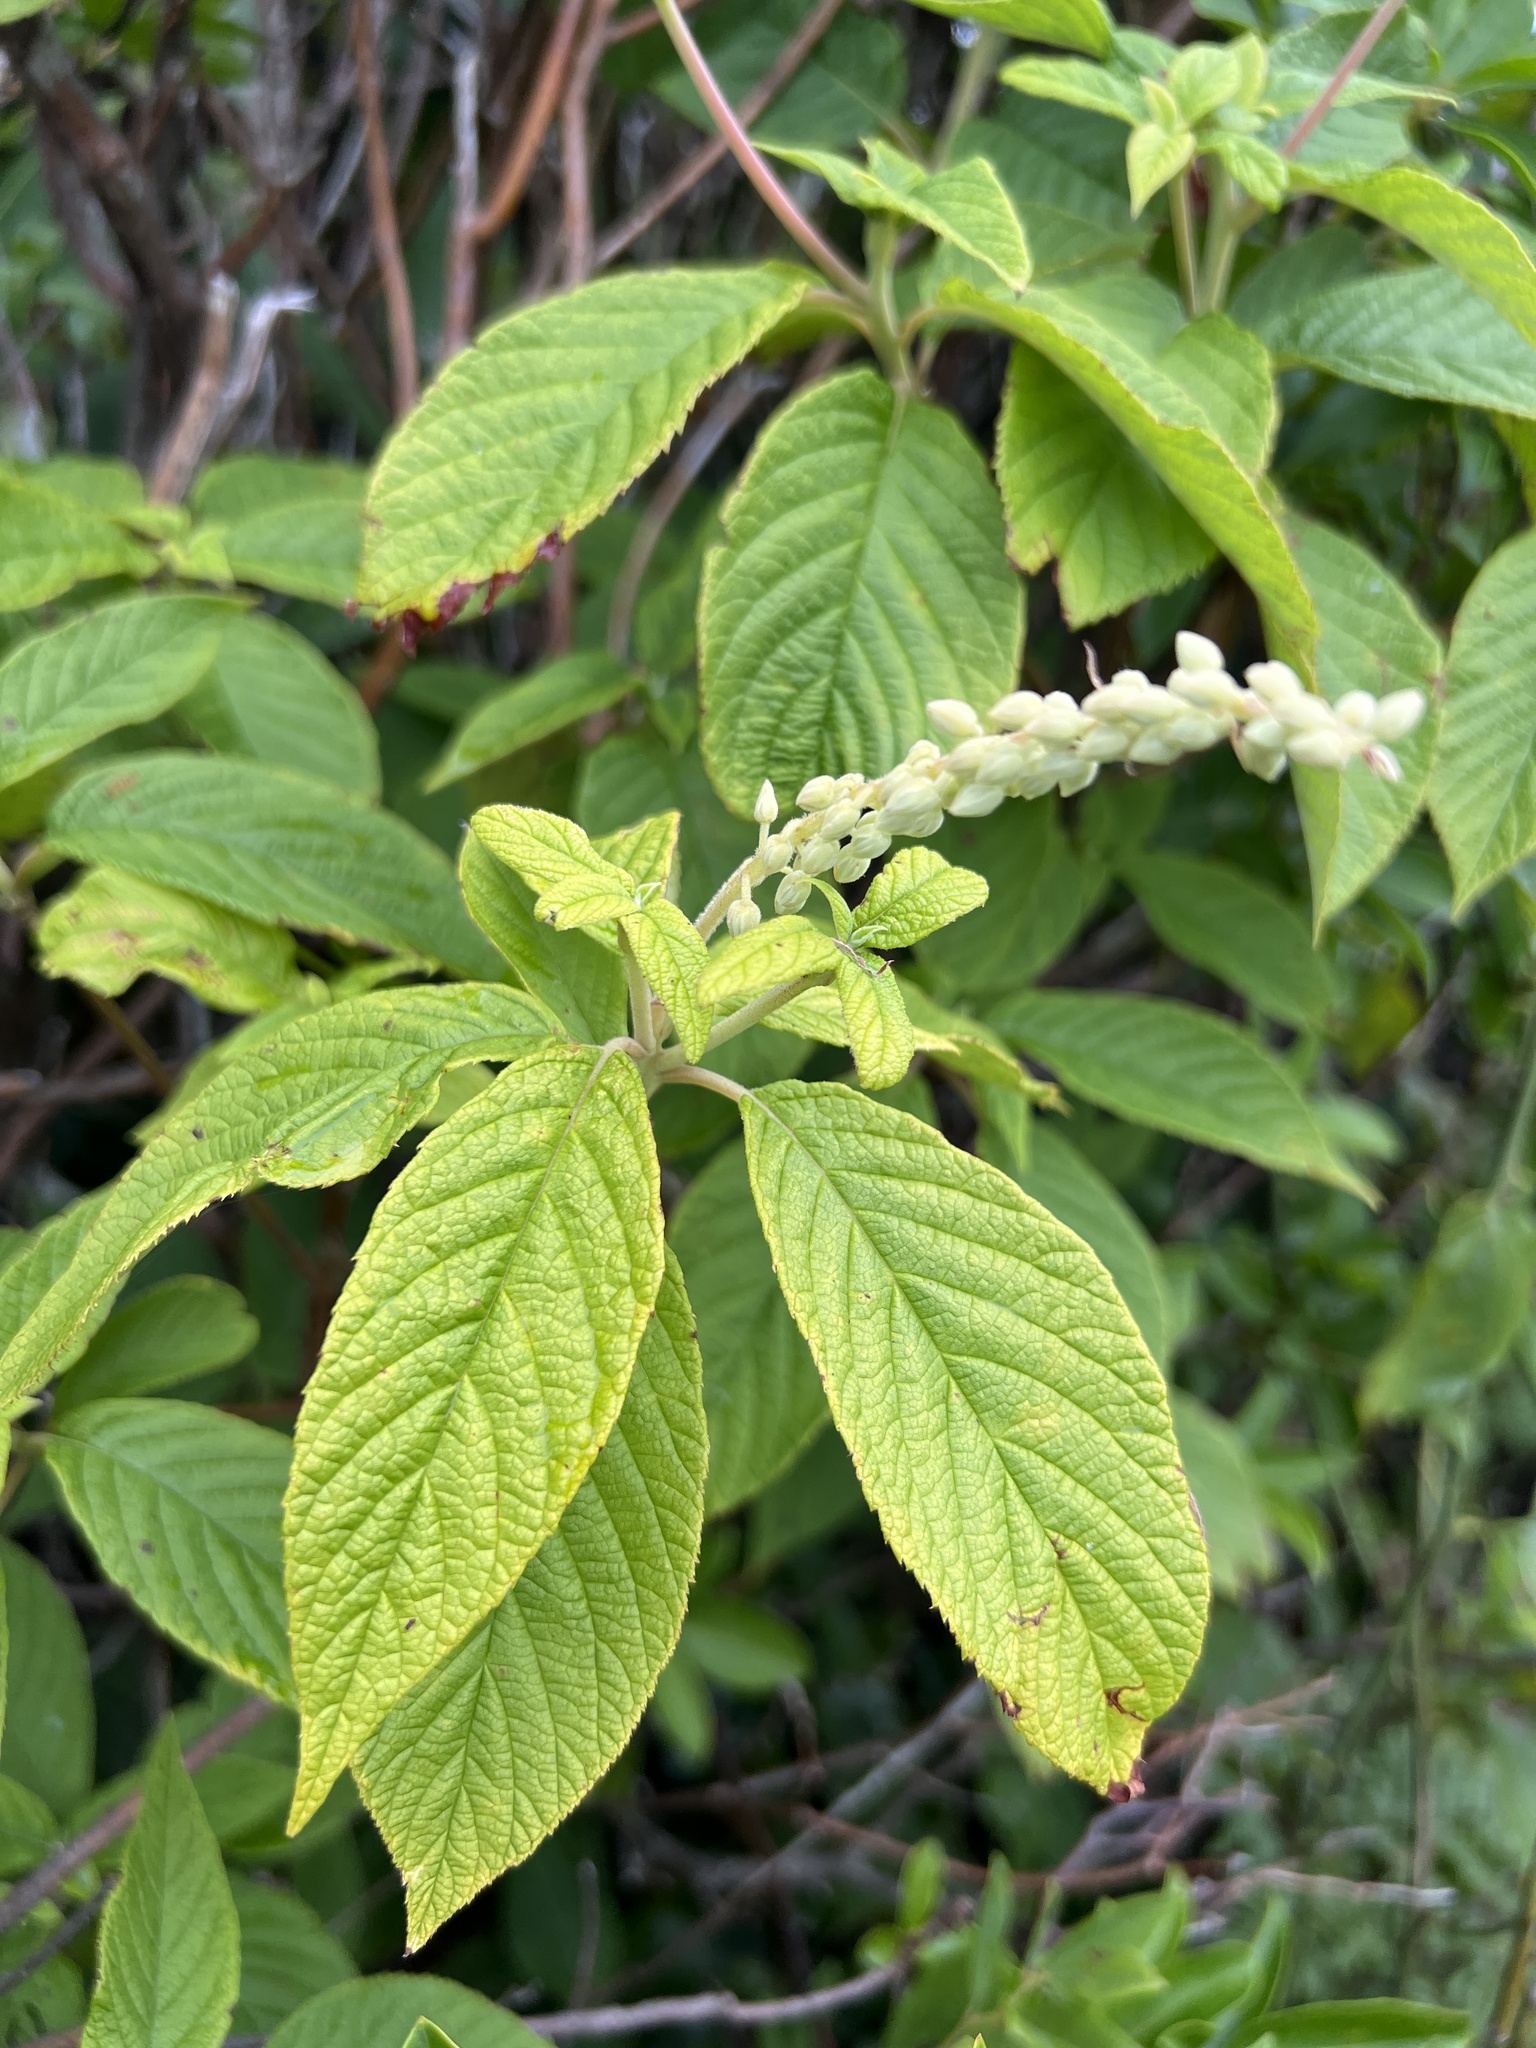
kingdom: Plantae
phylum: Tracheophyta
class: Magnoliopsida
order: Ericales
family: Clethraceae
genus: Clethra
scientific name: Clethra acuminata
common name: Mountain sweet pepperbush
